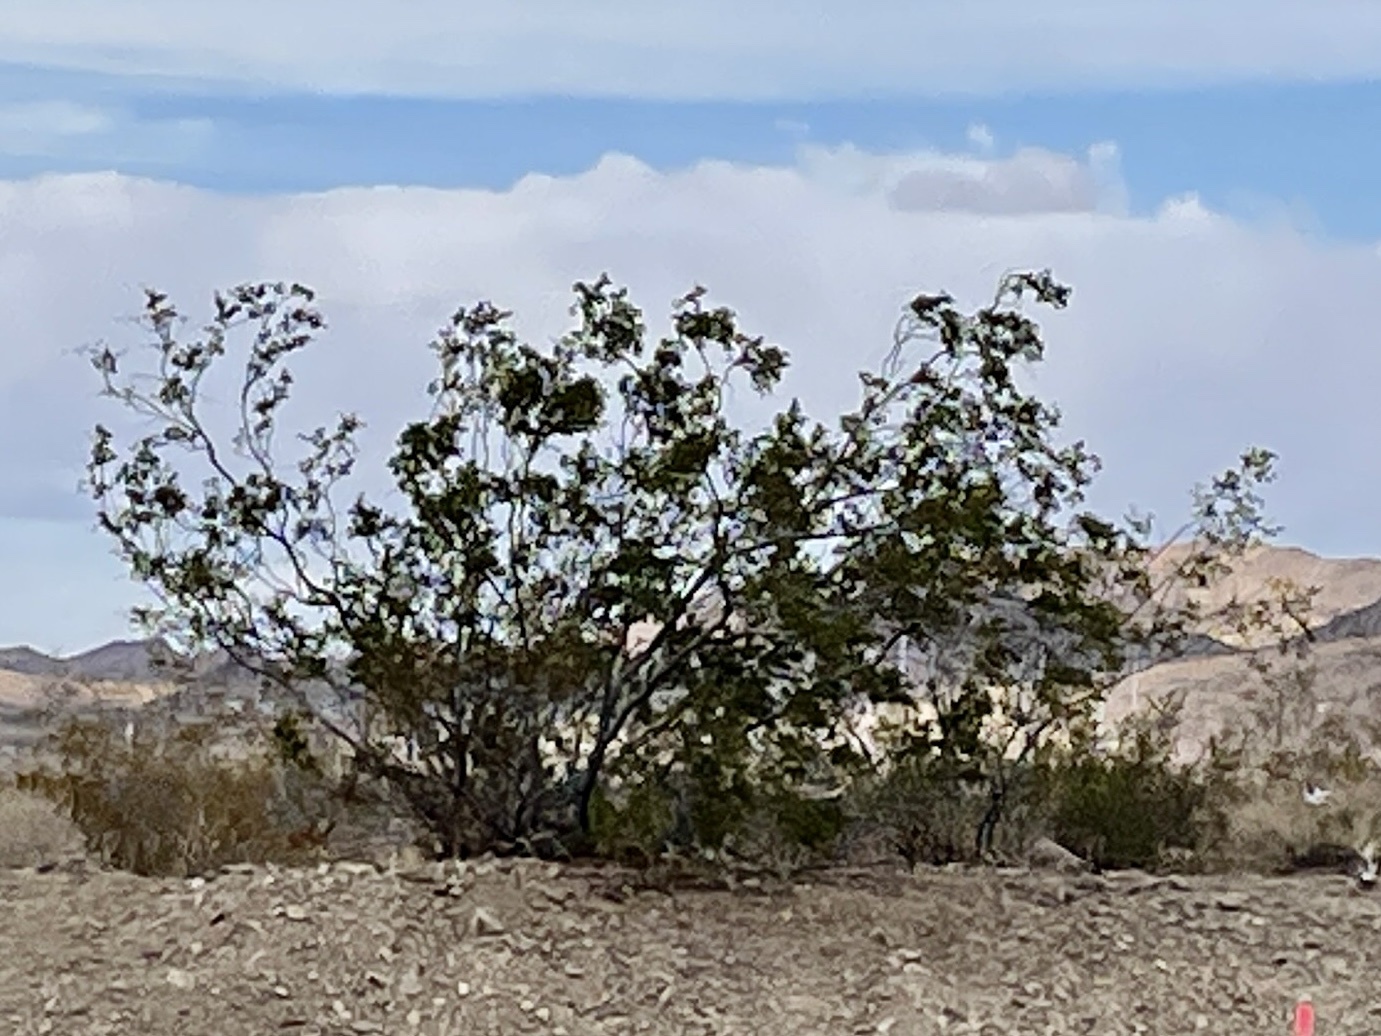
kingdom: Plantae
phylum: Tracheophyta
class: Magnoliopsida
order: Zygophyllales
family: Zygophyllaceae
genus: Larrea
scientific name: Larrea tridentata
